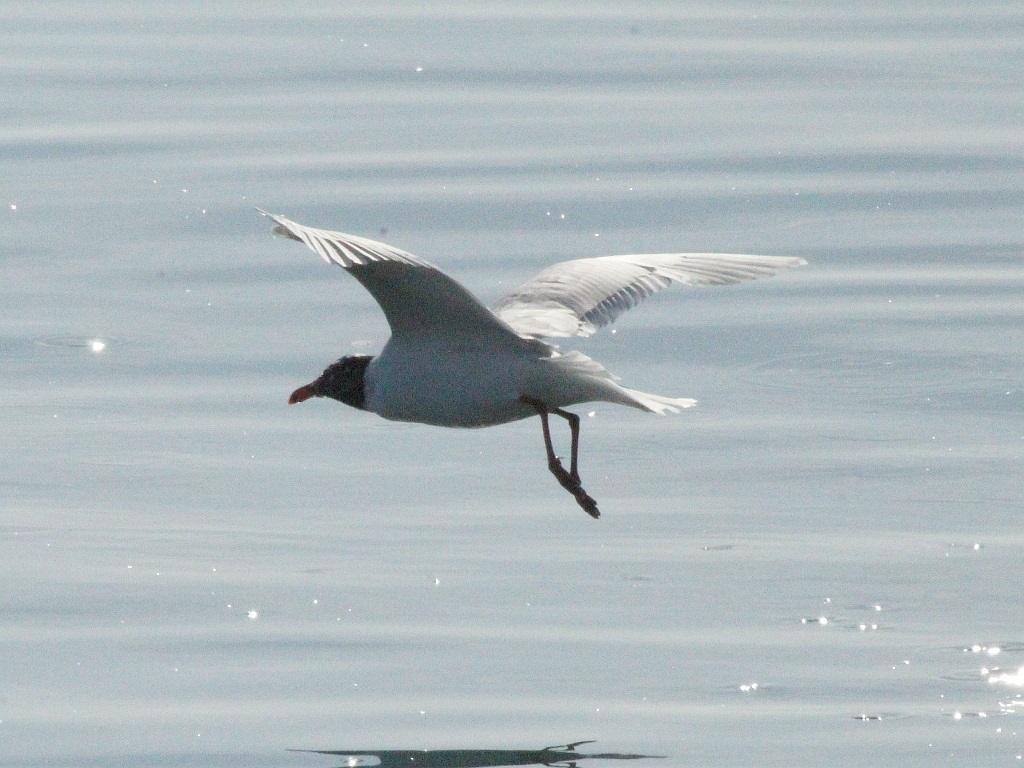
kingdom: Animalia
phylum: Chordata
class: Aves
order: Charadriiformes
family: Laridae
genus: Ichthyaetus
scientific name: Ichthyaetus melanocephalus
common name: Mediterranean gull
